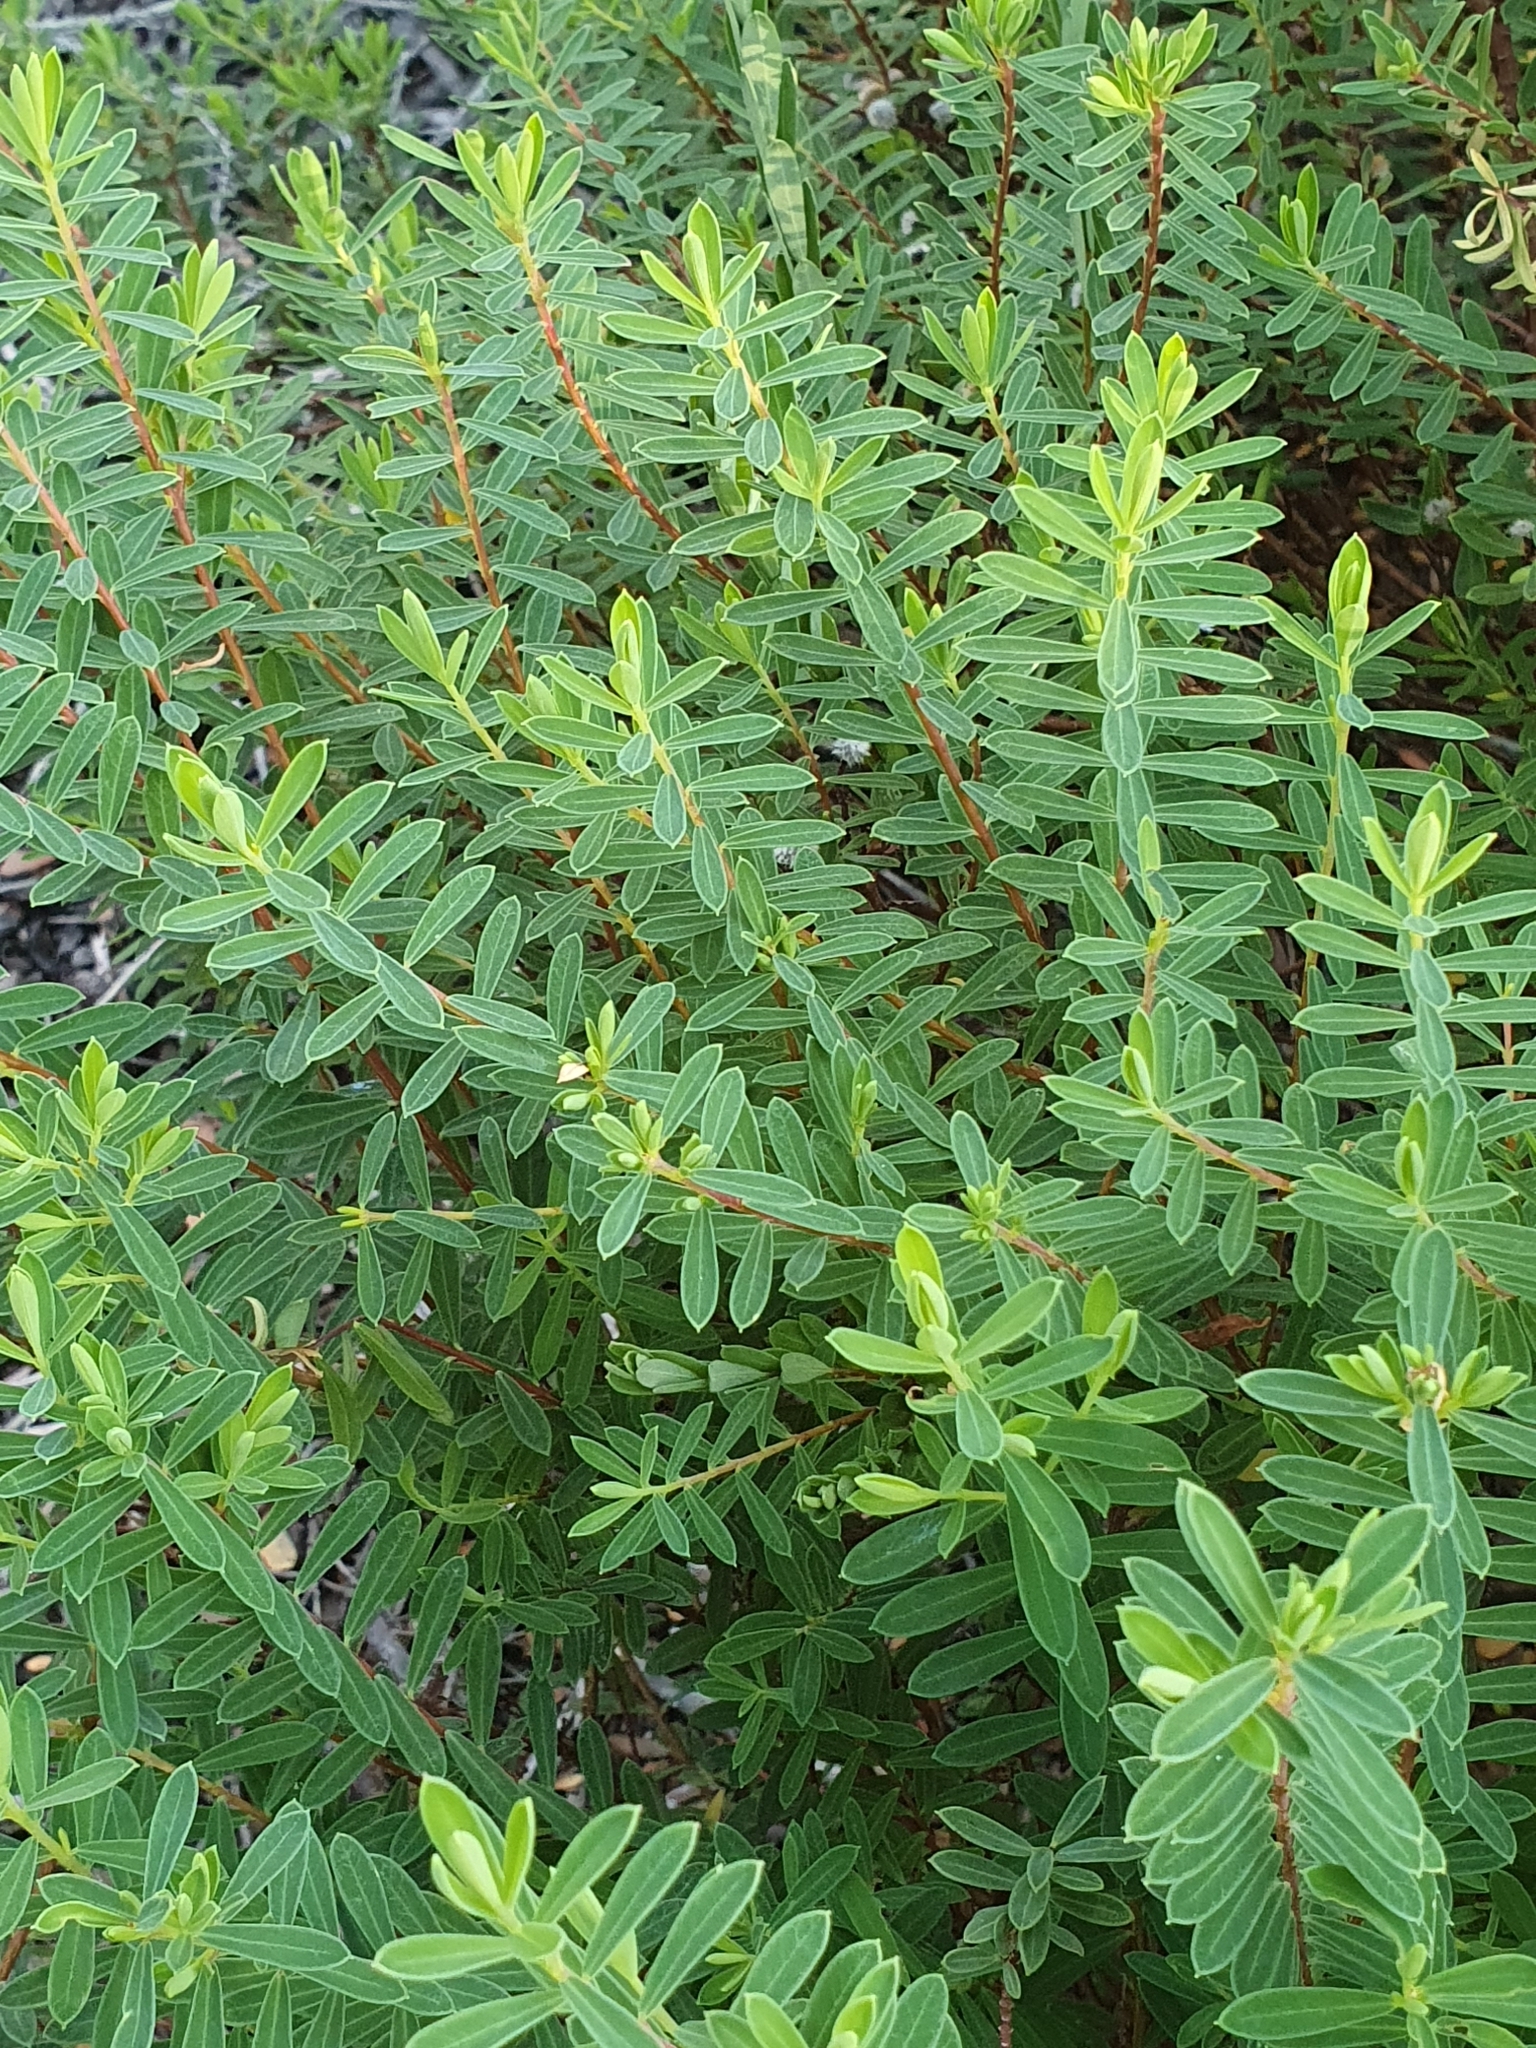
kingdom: Plantae
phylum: Tracheophyta
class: Magnoliopsida
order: Malvales
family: Thymelaeaceae
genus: Pimelea
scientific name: Pimelea linifolia
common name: Queen-of-the-bush
